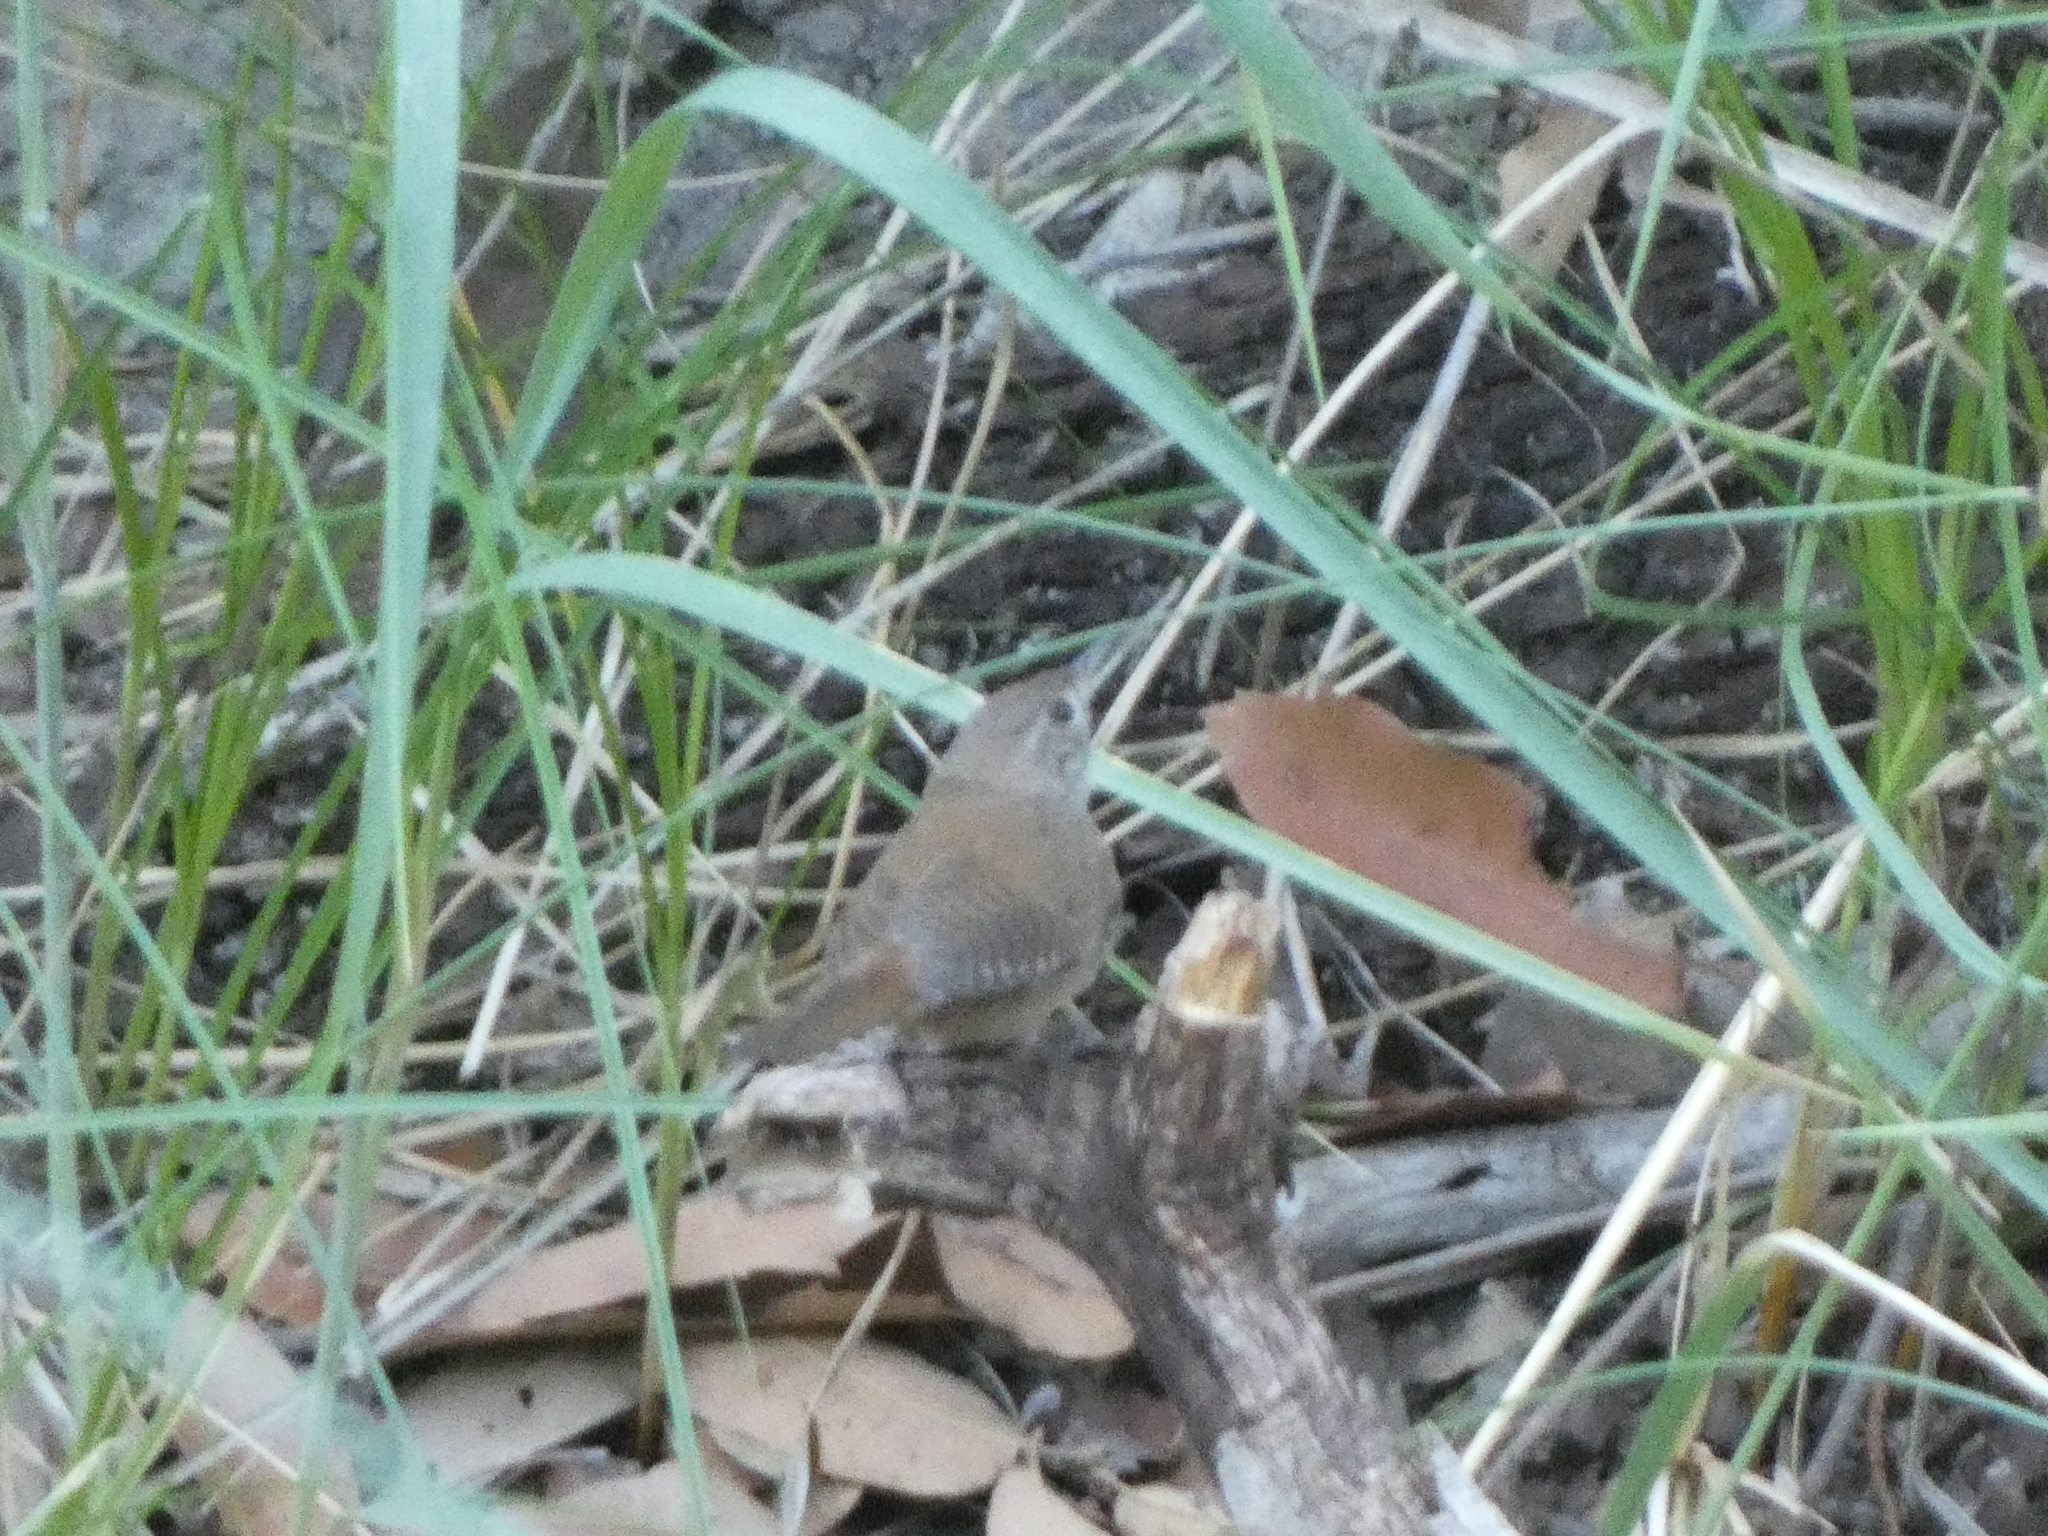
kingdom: Animalia
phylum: Chordata
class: Aves
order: Passeriformes
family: Troglodytidae
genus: Troglodytes
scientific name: Troglodytes aedon
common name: House wren
